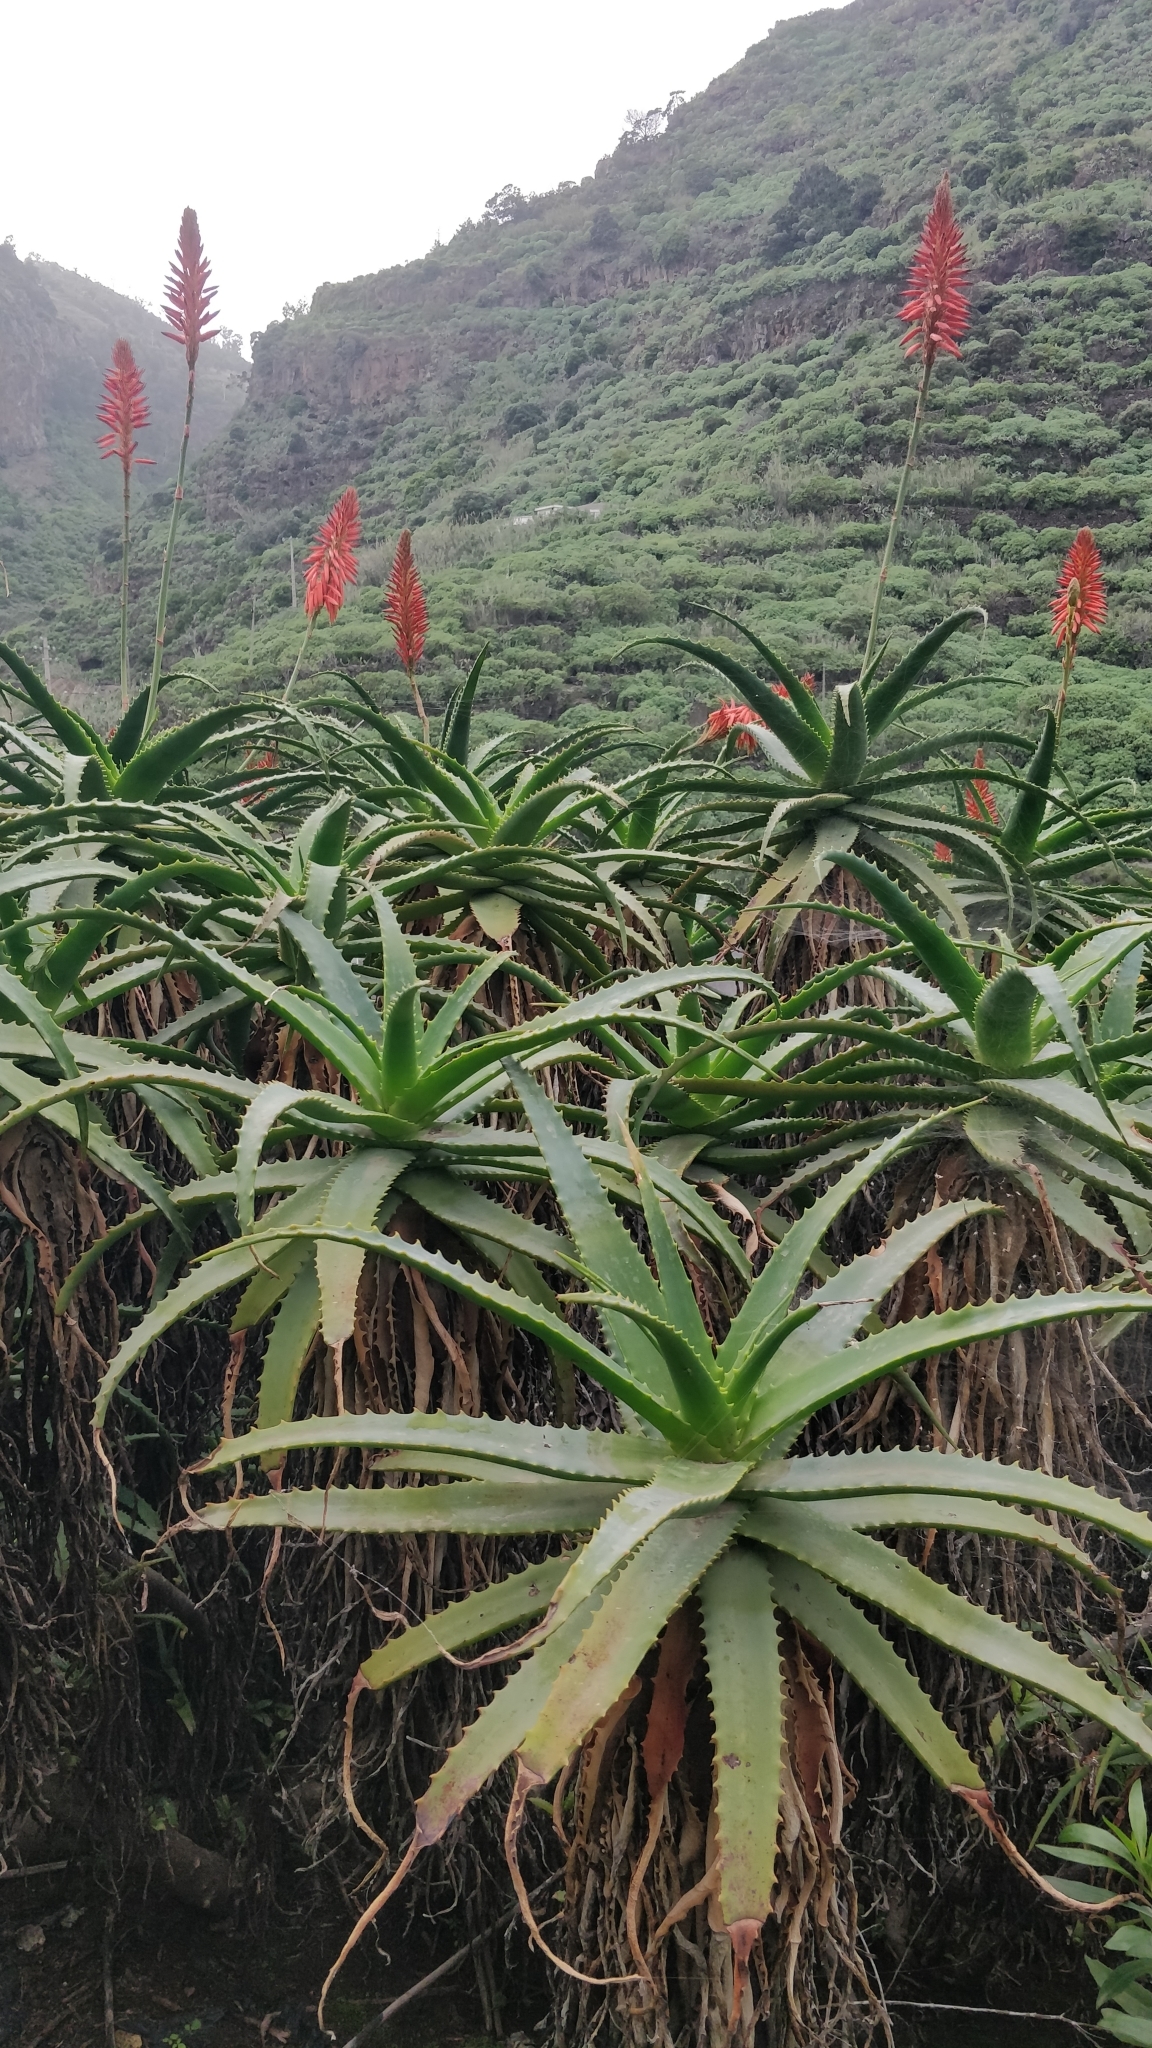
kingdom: Plantae
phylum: Tracheophyta
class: Liliopsida
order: Asparagales
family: Asphodelaceae
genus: Aloe
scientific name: Aloe arborescens
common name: Candelabra aloe
